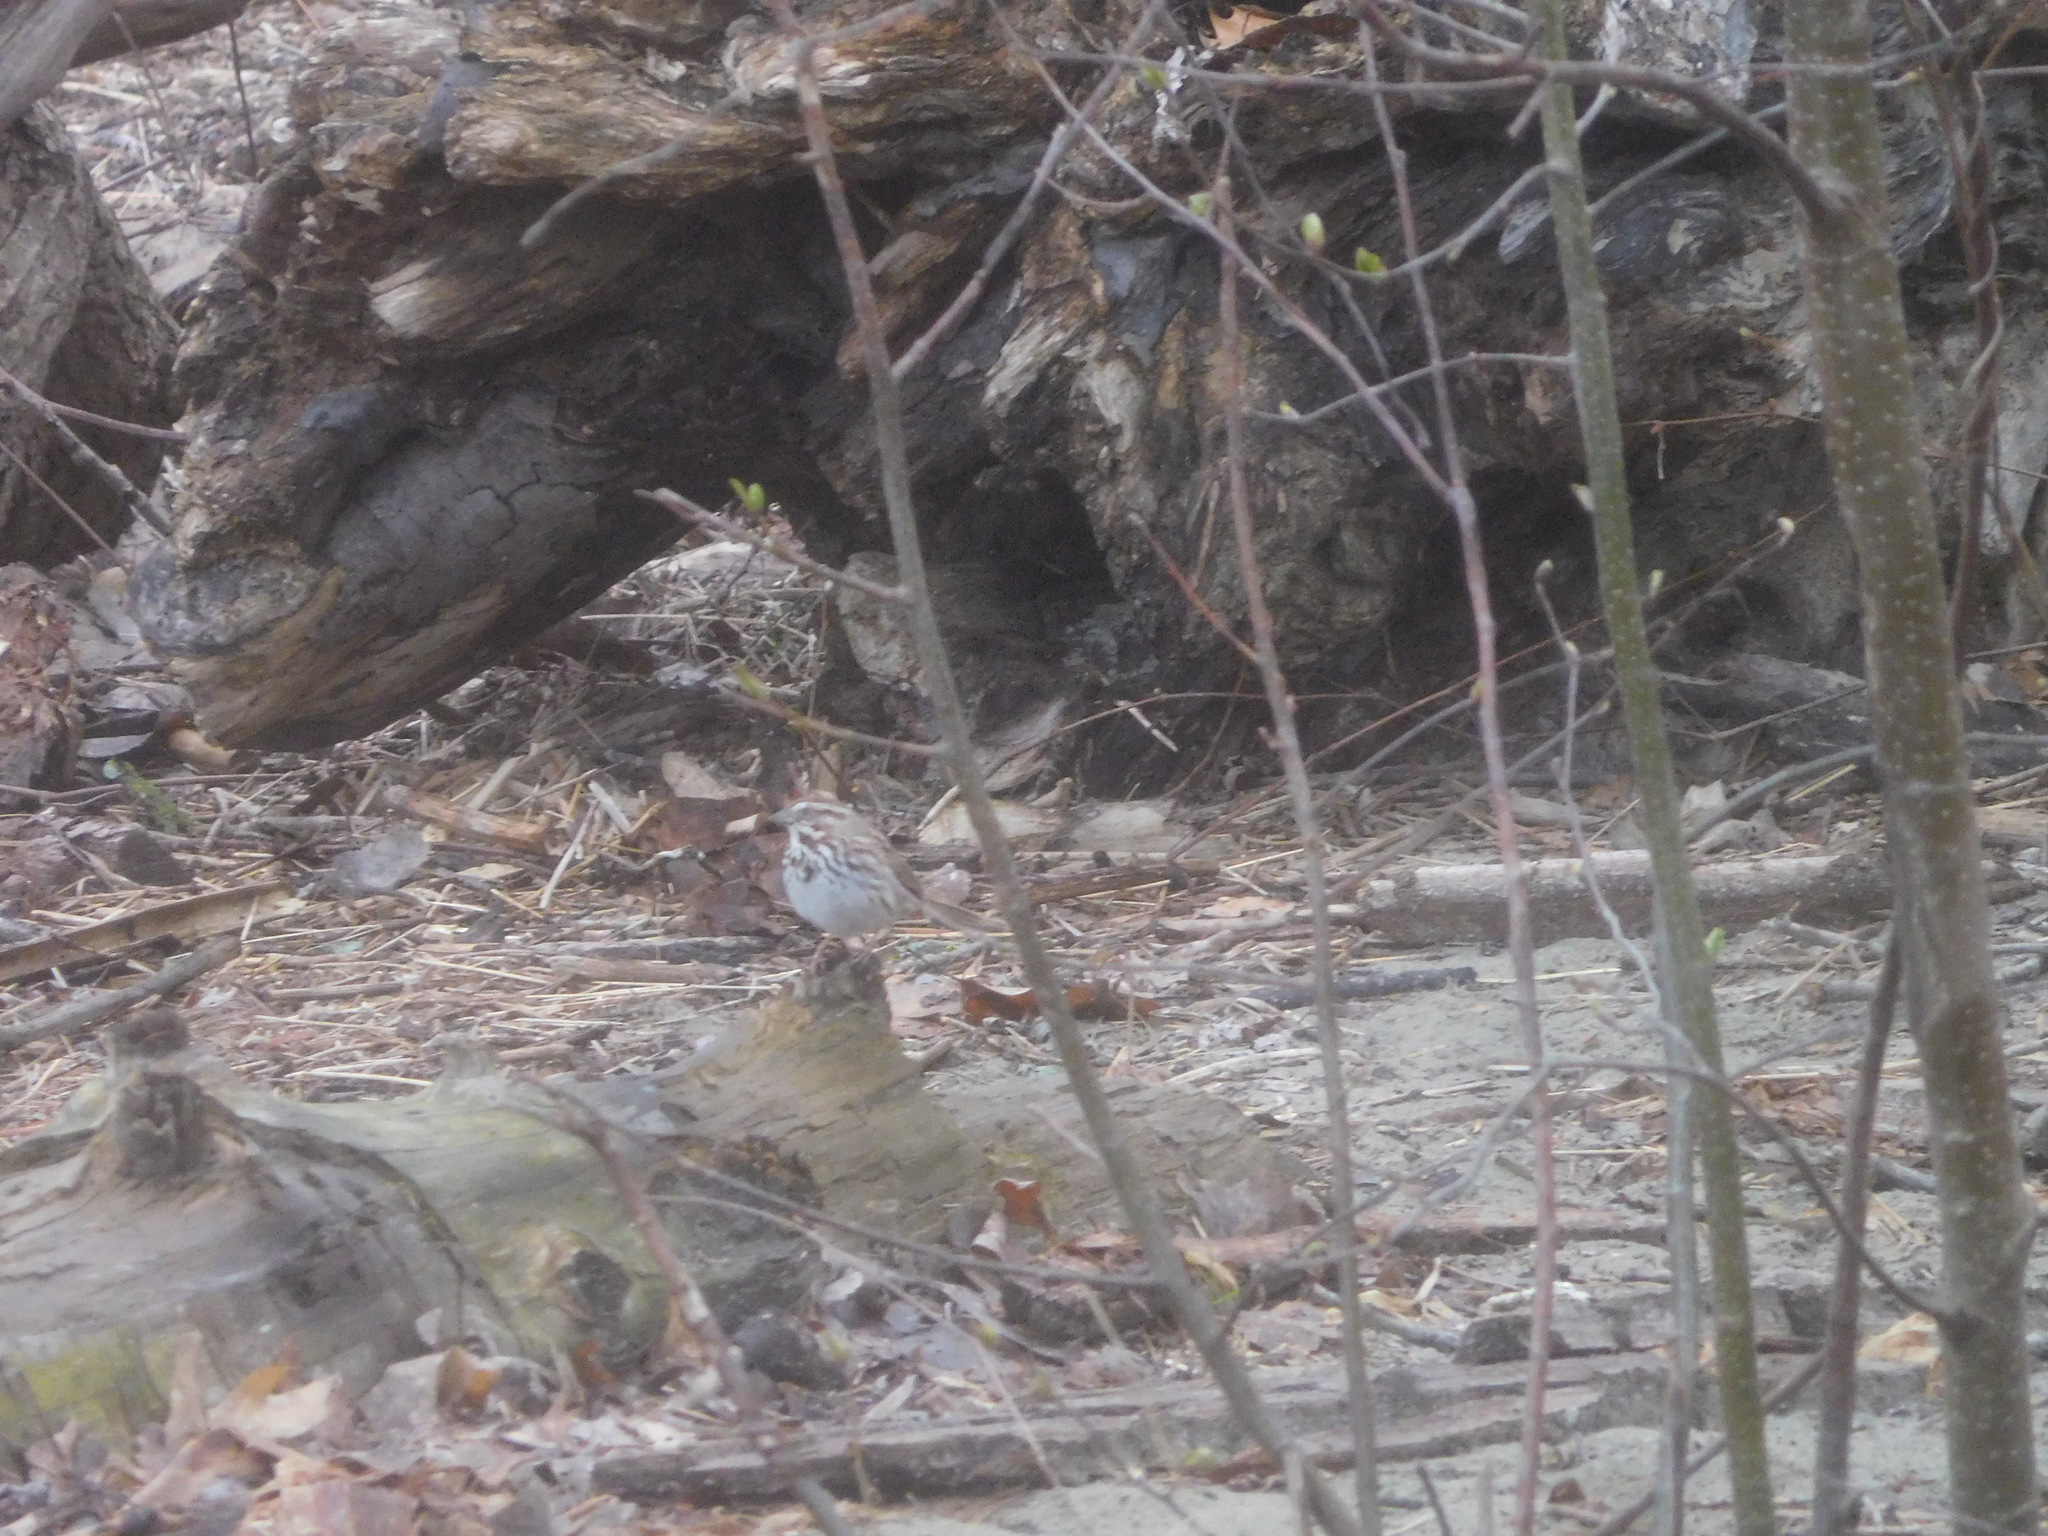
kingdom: Animalia
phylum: Chordata
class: Aves
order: Passeriformes
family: Passerellidae
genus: Melospiza
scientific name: Melospiza melodia
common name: Song sparrow
